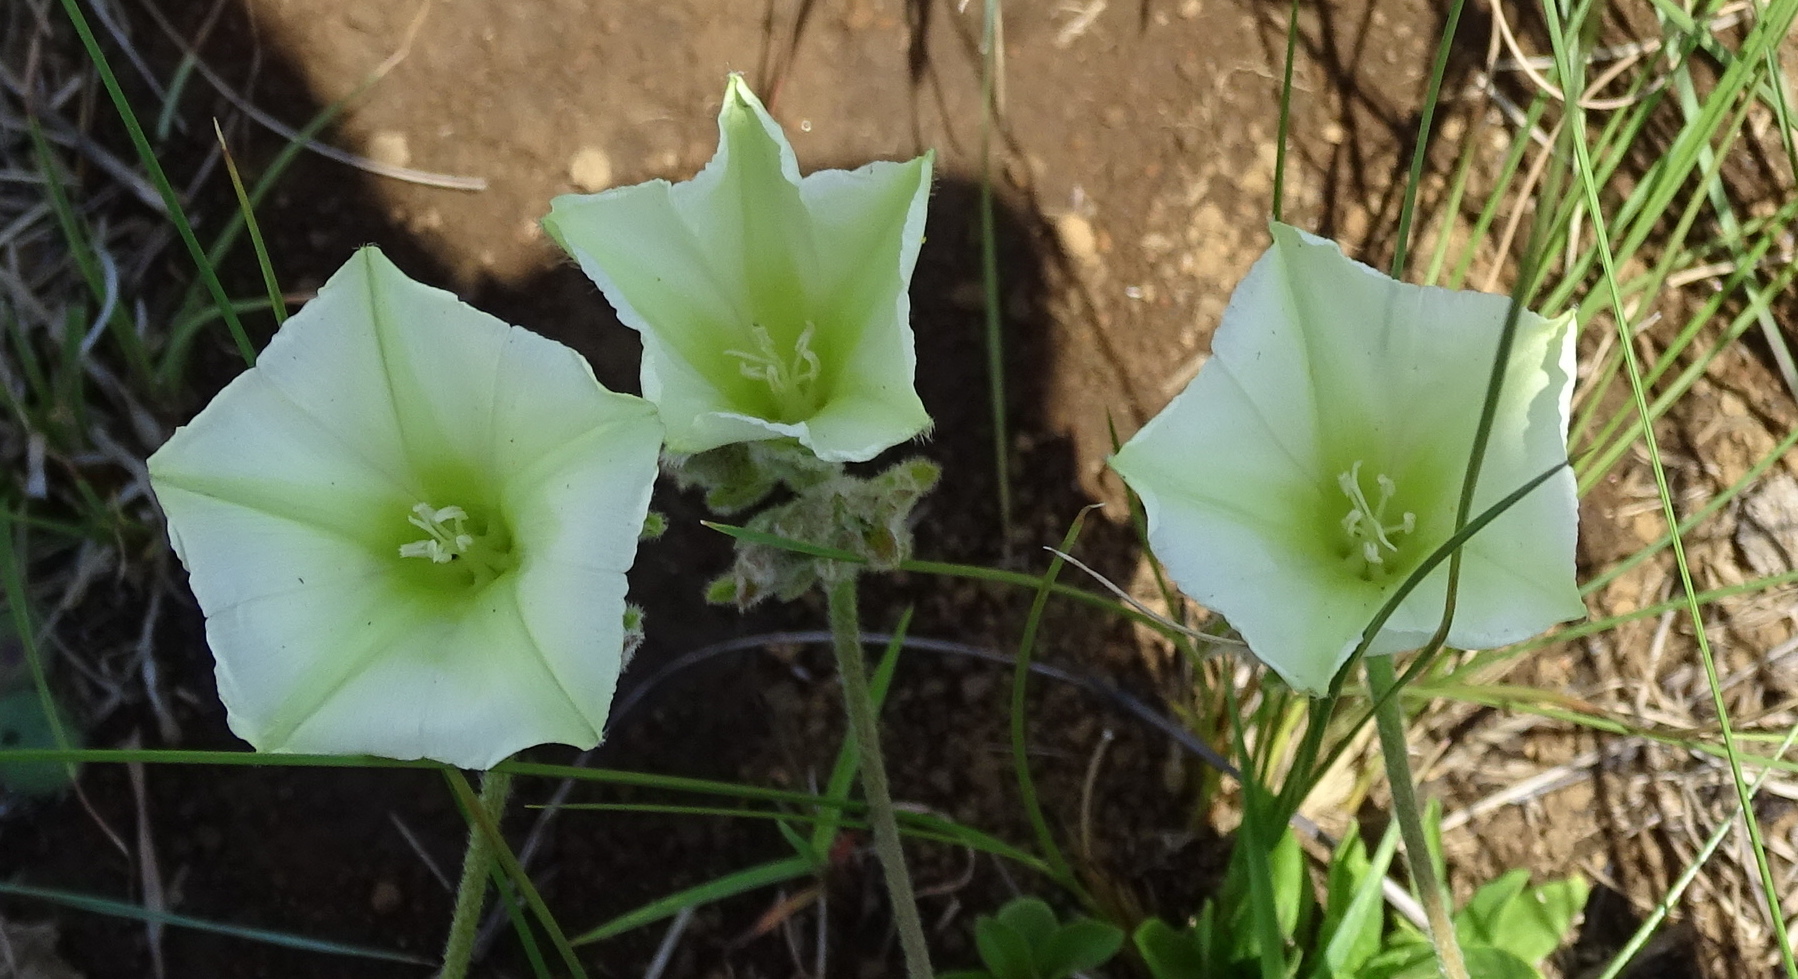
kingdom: Plantae
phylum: Tracheophyta
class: Magnoliopsida
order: Solanales
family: Convolvulaceae
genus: Convolvulus
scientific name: Convolvulus natalensis
